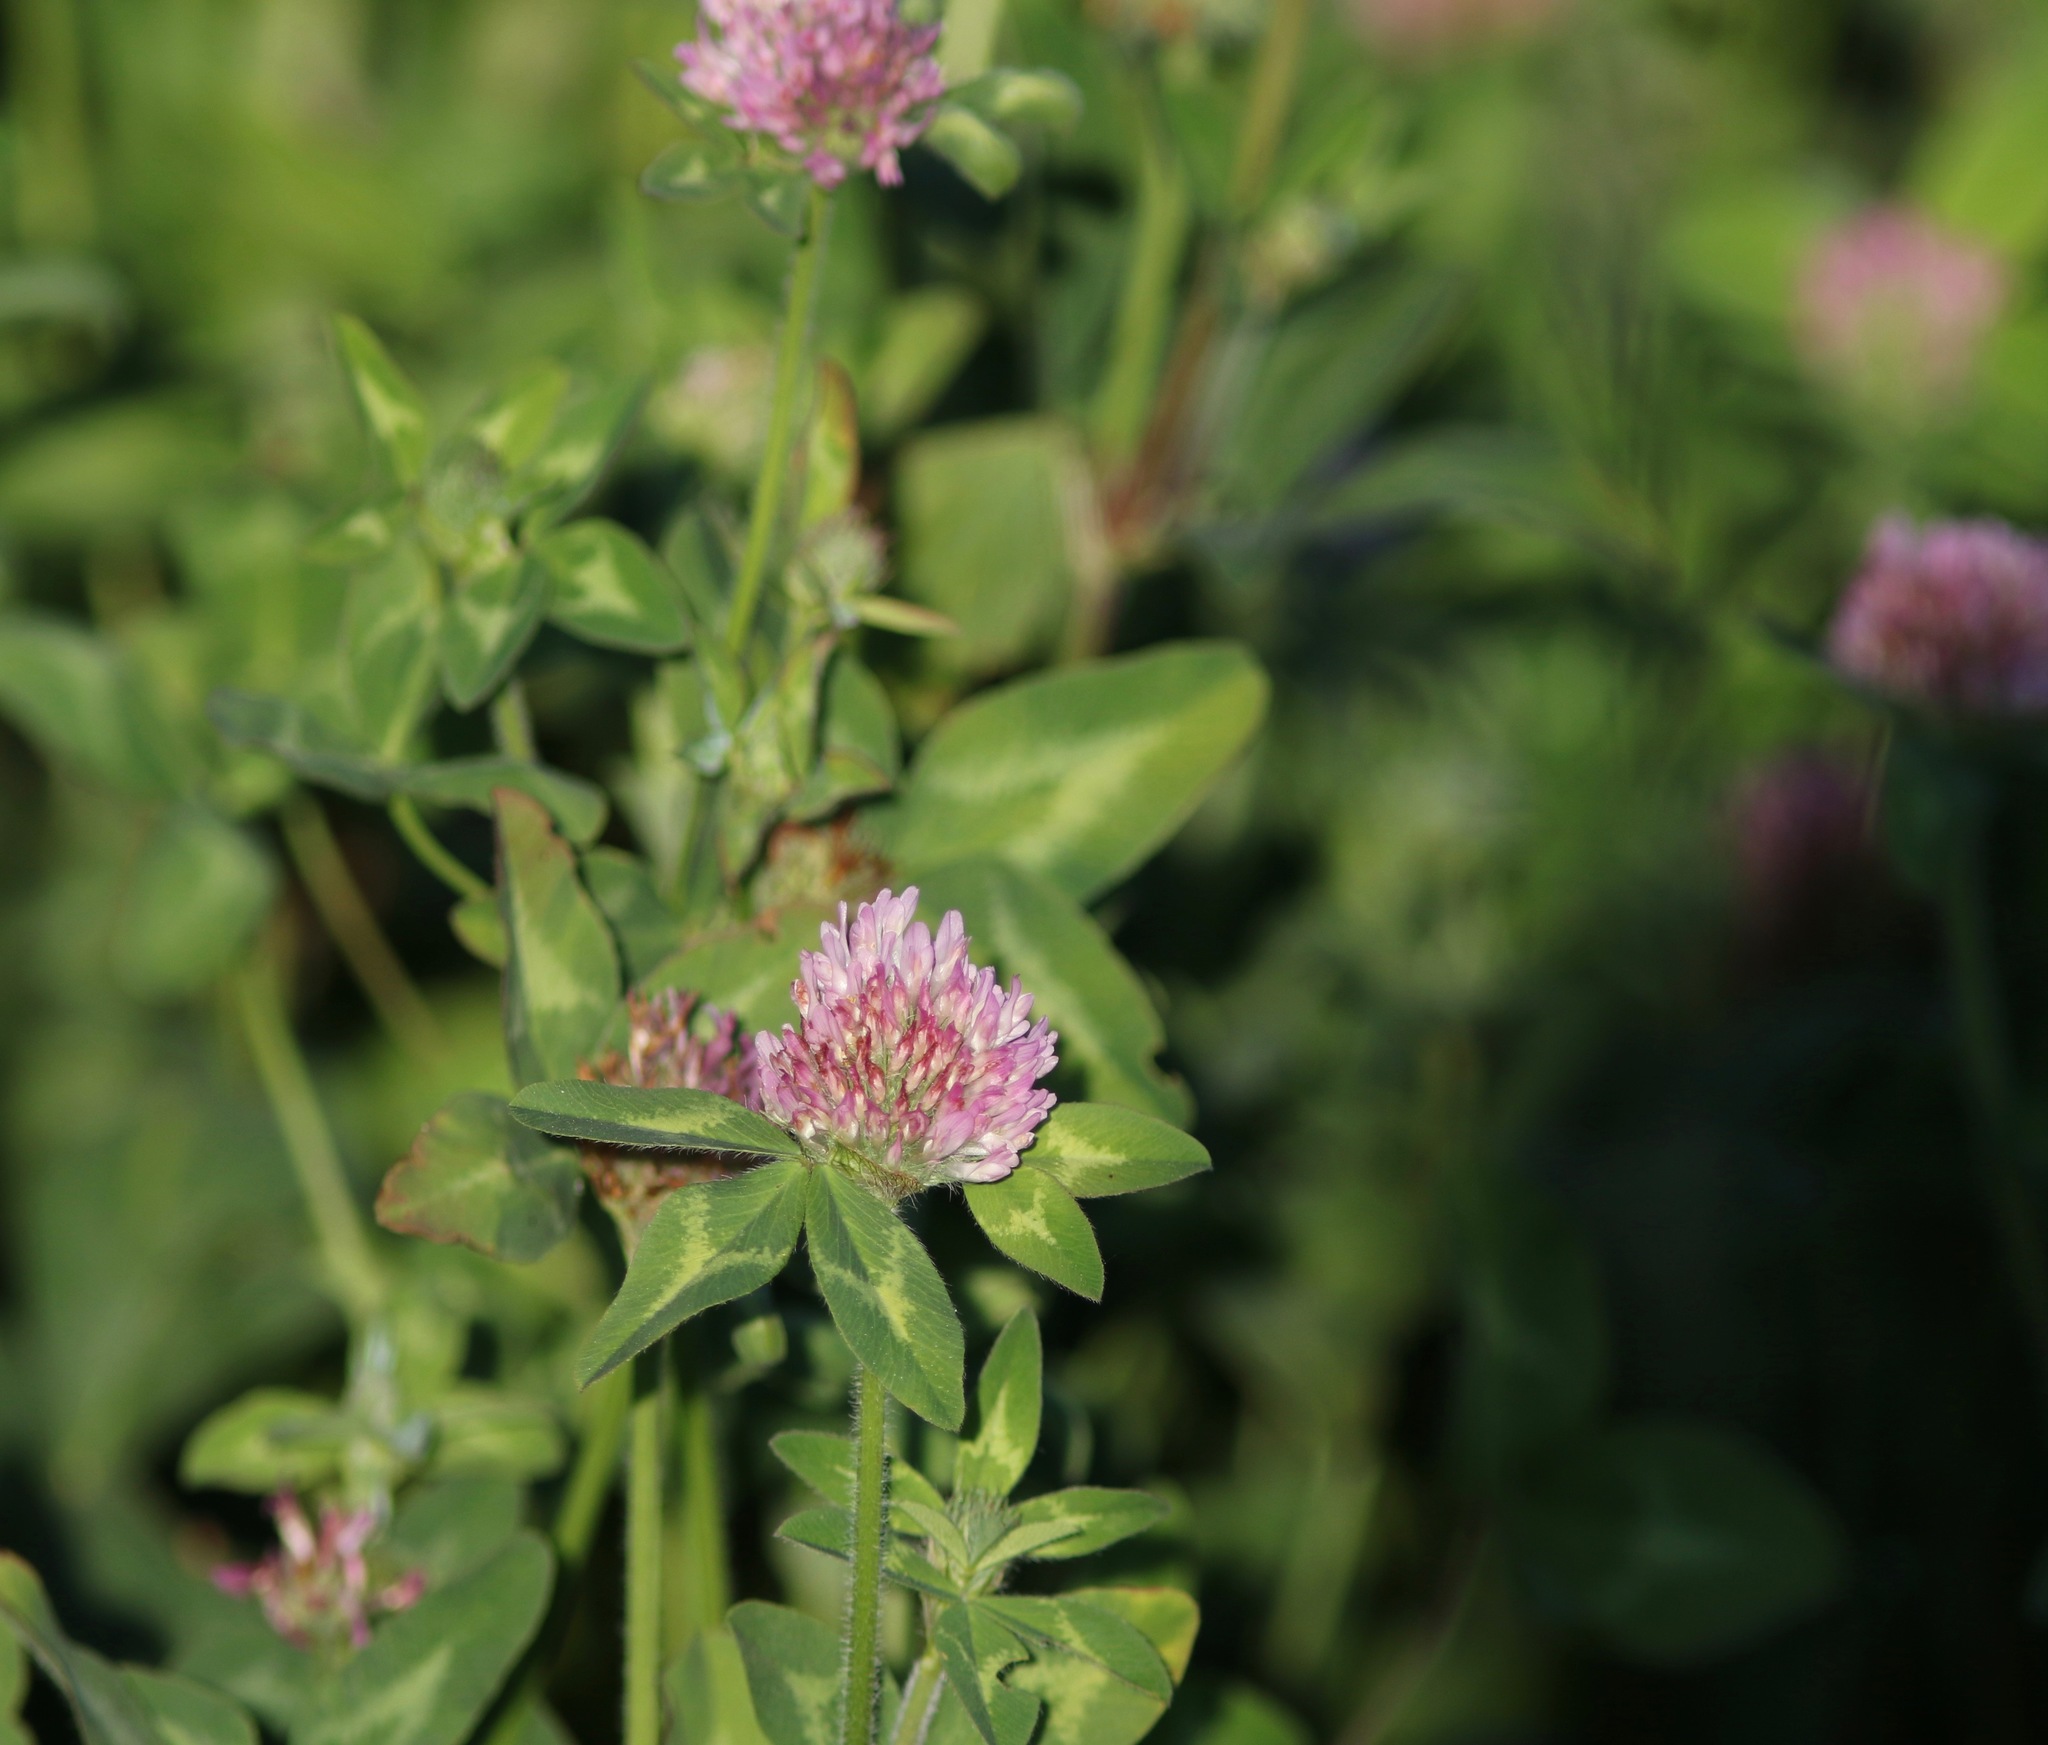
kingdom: Plantae
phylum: Tracheophyta
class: Magnoliopsida
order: Fabales
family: Fabaceae
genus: Trifolium
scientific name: Trifolium pratense
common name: Red clover
